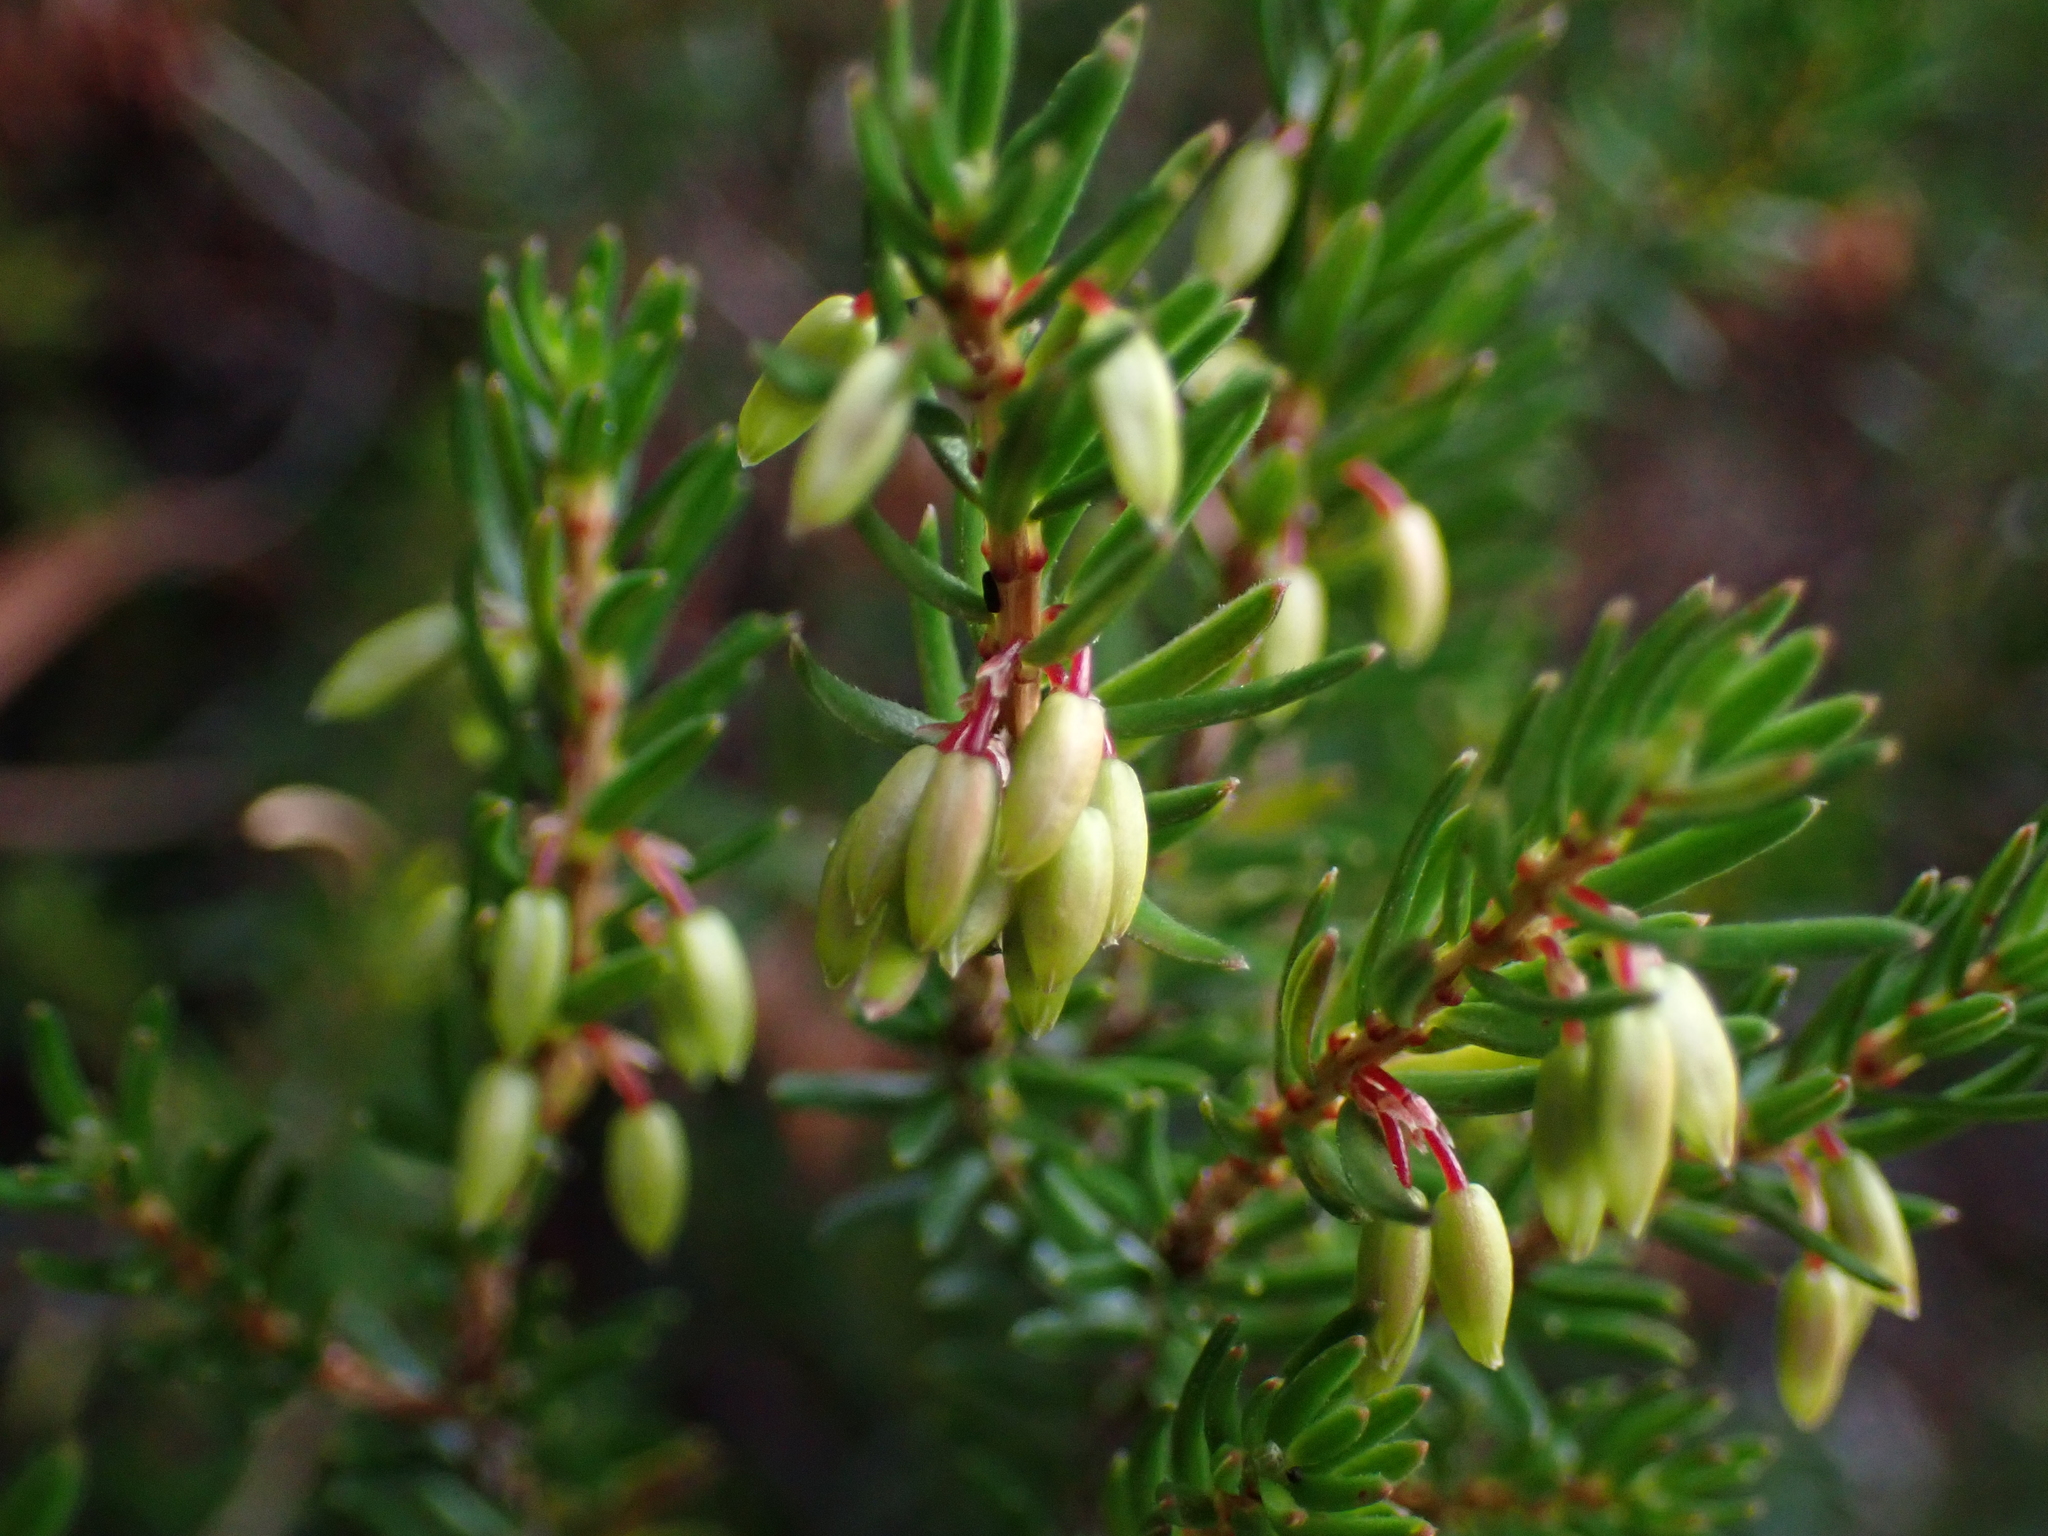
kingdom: Plantae
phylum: Tracheophyta
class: Magnoliopsida
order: Ericales
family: Ericaceae
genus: Erica
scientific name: Erica carnea
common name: Winter heath
